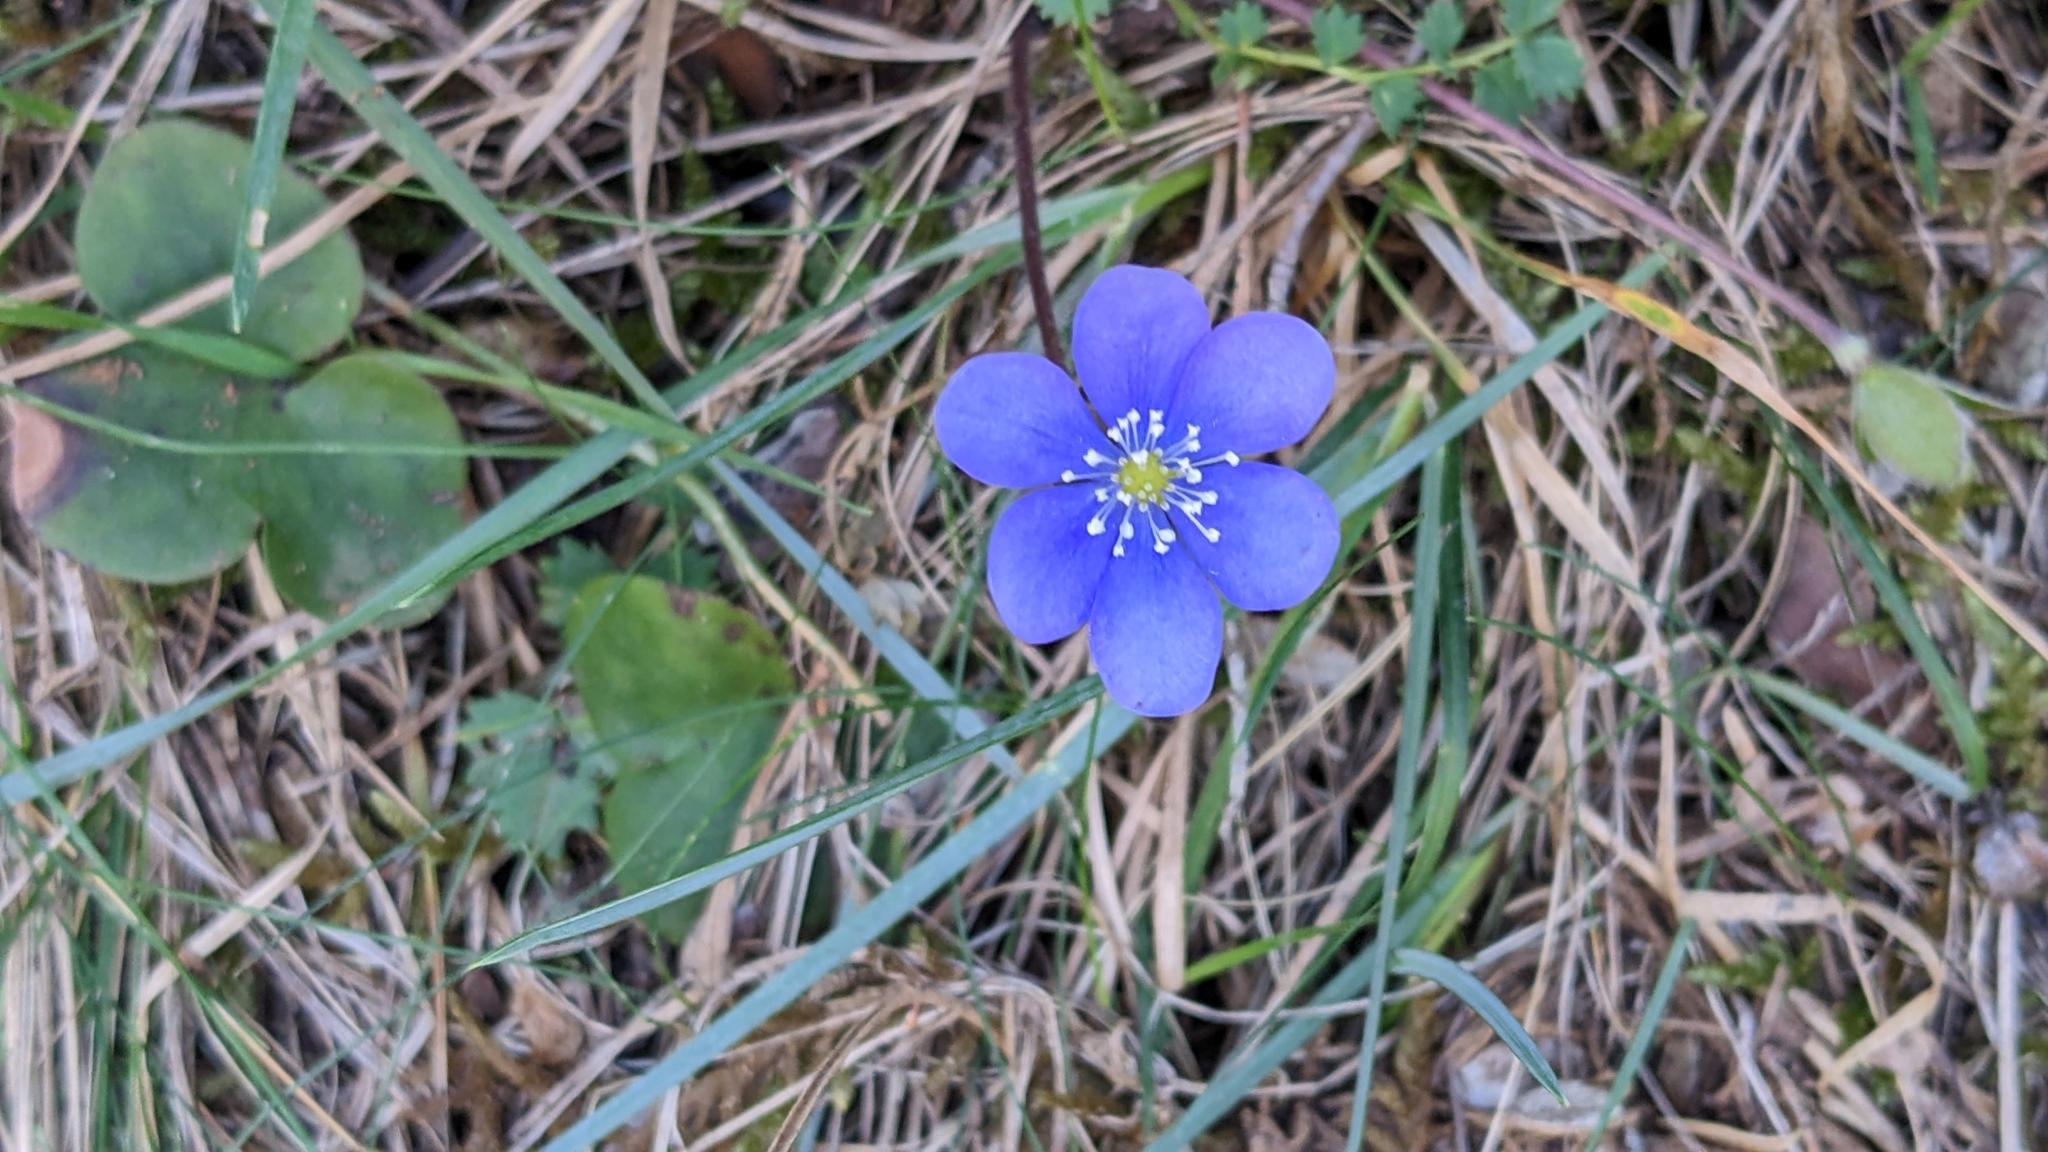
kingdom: Plantae
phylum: Tracheophyta
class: Magnoliopsida
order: Ranunculales
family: Ranunculaceae
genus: Hepatica
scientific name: Hepatica nobilis
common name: Liverleaf
